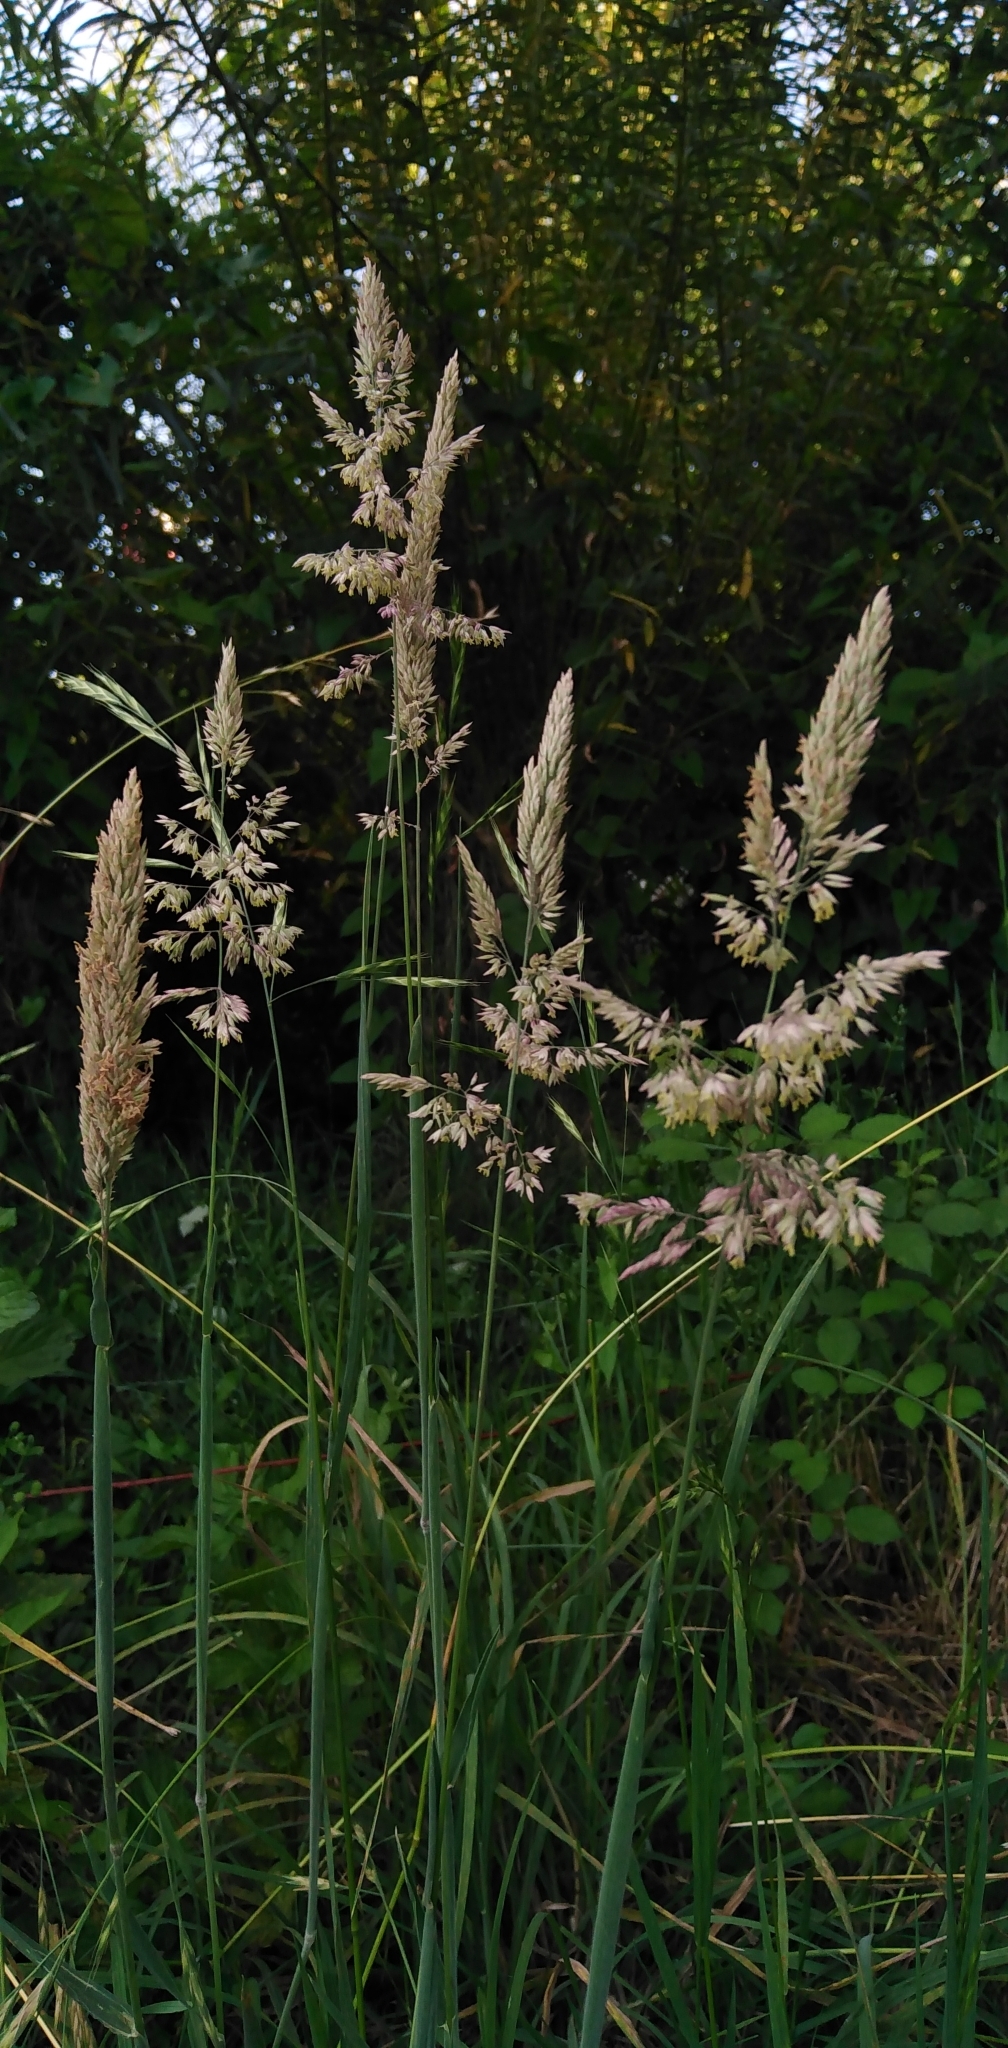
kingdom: Plantae
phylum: Tracheophyta
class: Liliopsida
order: Poales
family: Poaceae
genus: Holcus
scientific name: Holcus lanatus
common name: Yorkshire-fog
